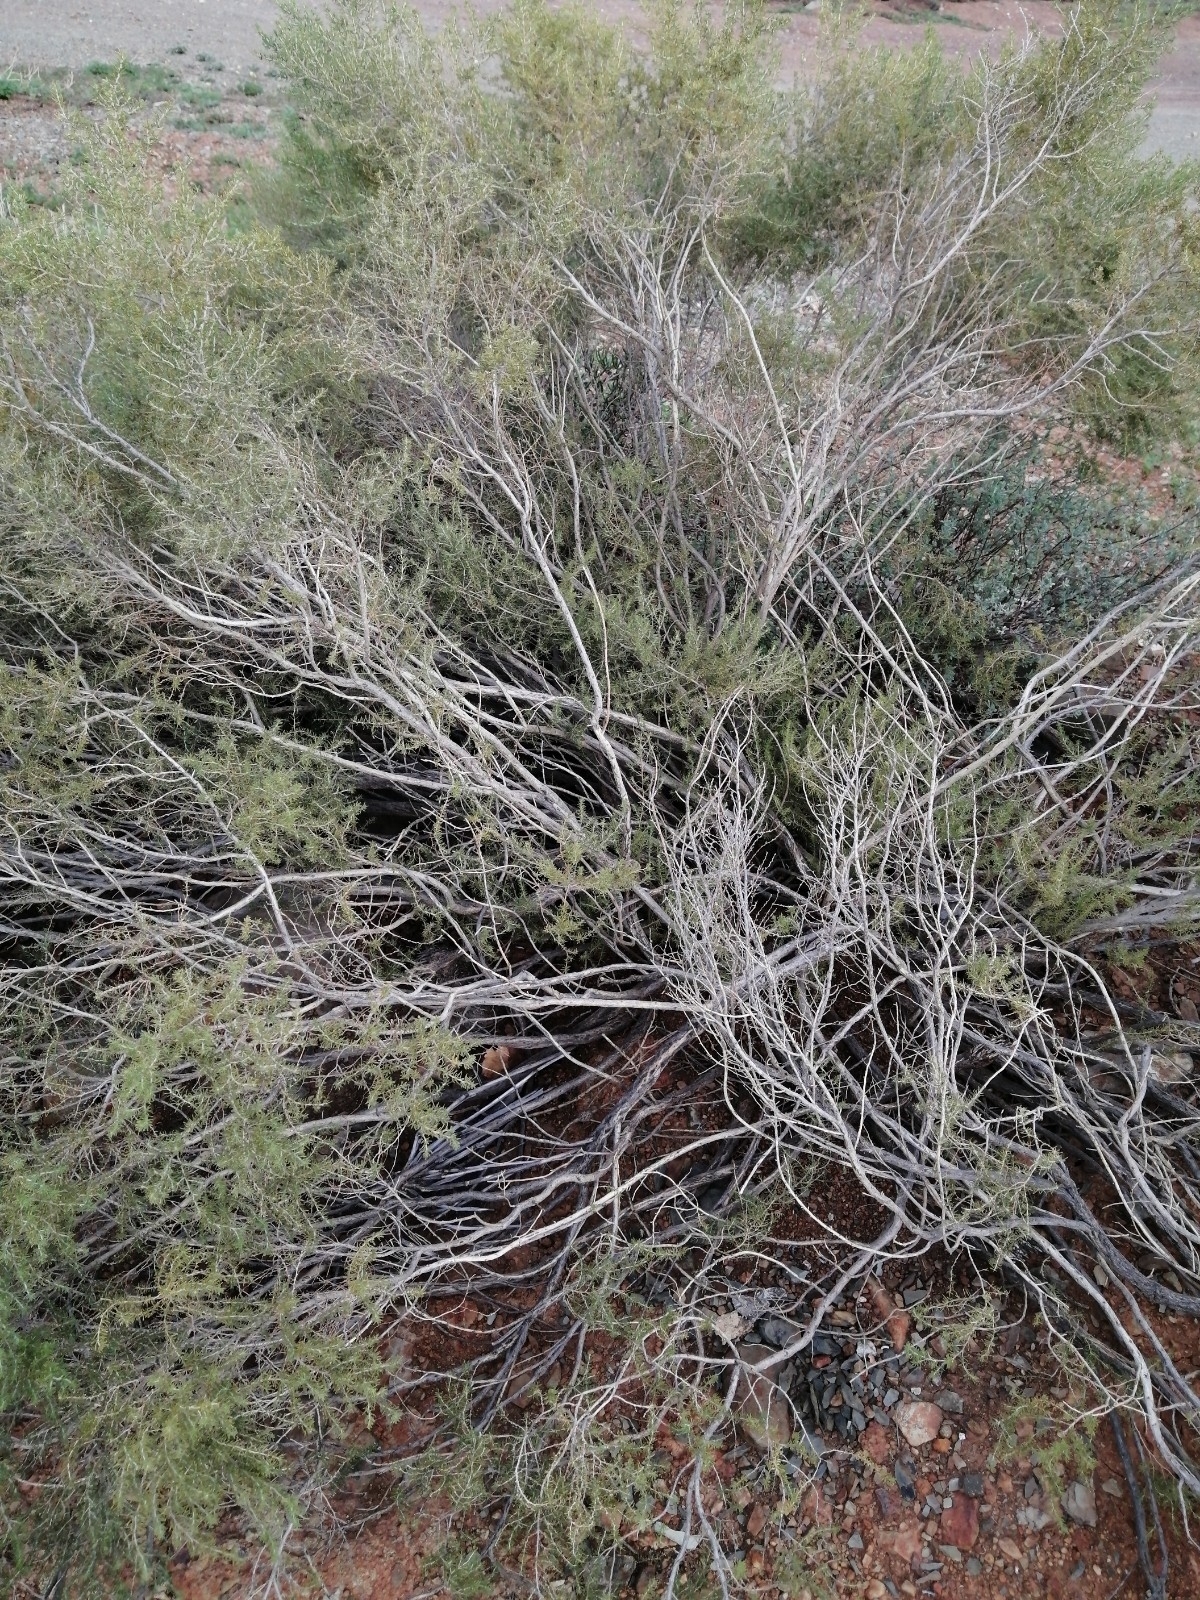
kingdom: Plantae
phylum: Tracheophyta
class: Magnoliopsida
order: Fabales
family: Fabaceae
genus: Aspalathus
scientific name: Aspalathus lactea
